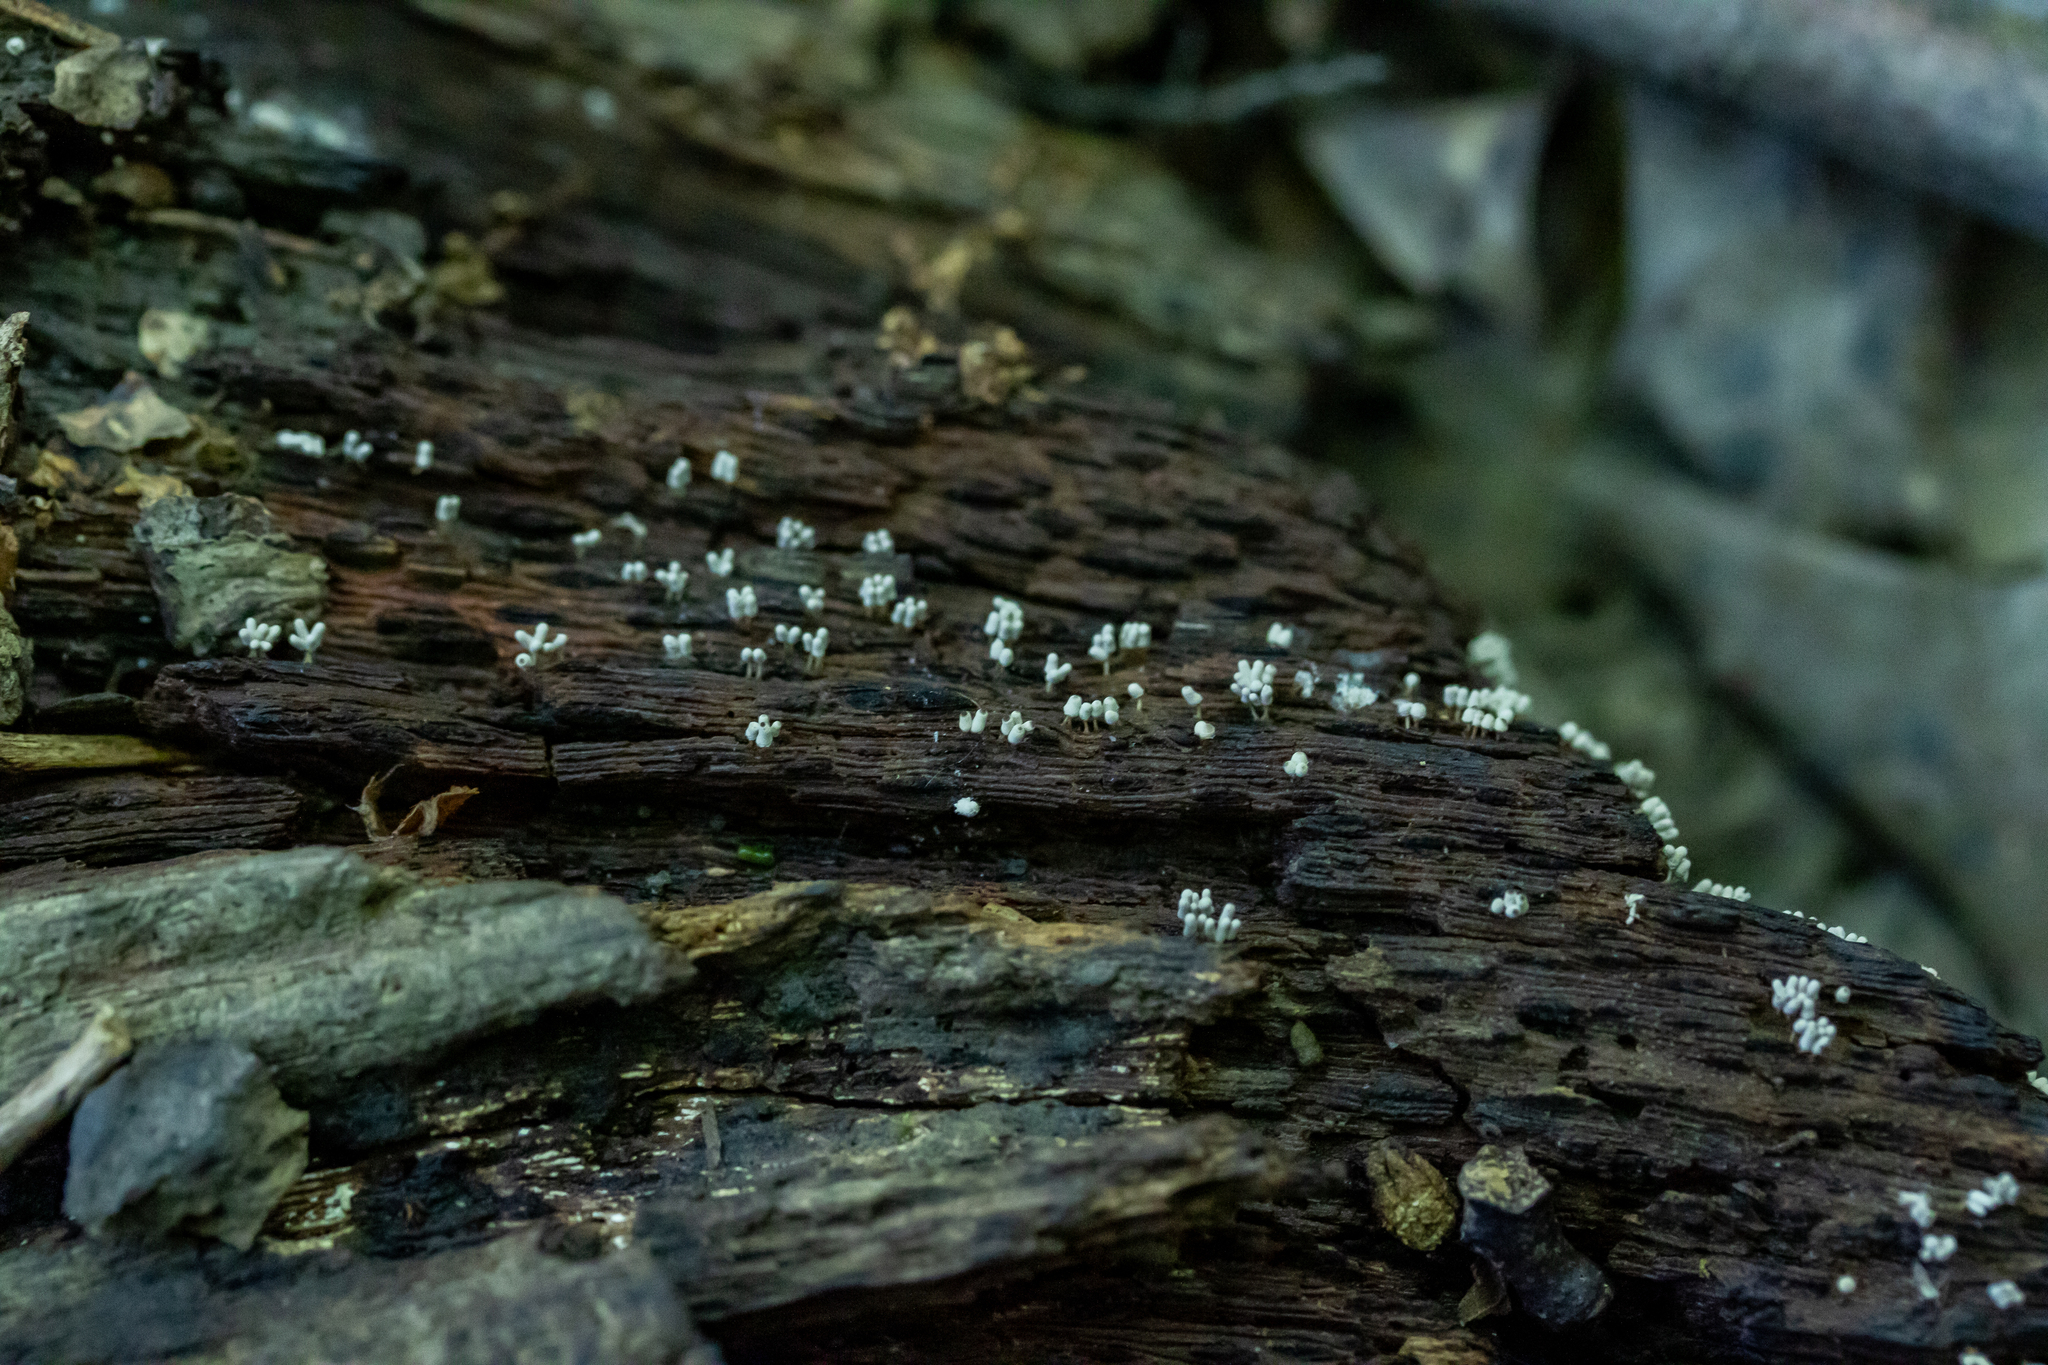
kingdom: Protozoa
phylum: Mycetozoa
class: Myxomycetes
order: Trichiales
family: Arcyriaceae
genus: Arcyria
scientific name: Arcyria cinerea
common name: White carnival candy slime mold
